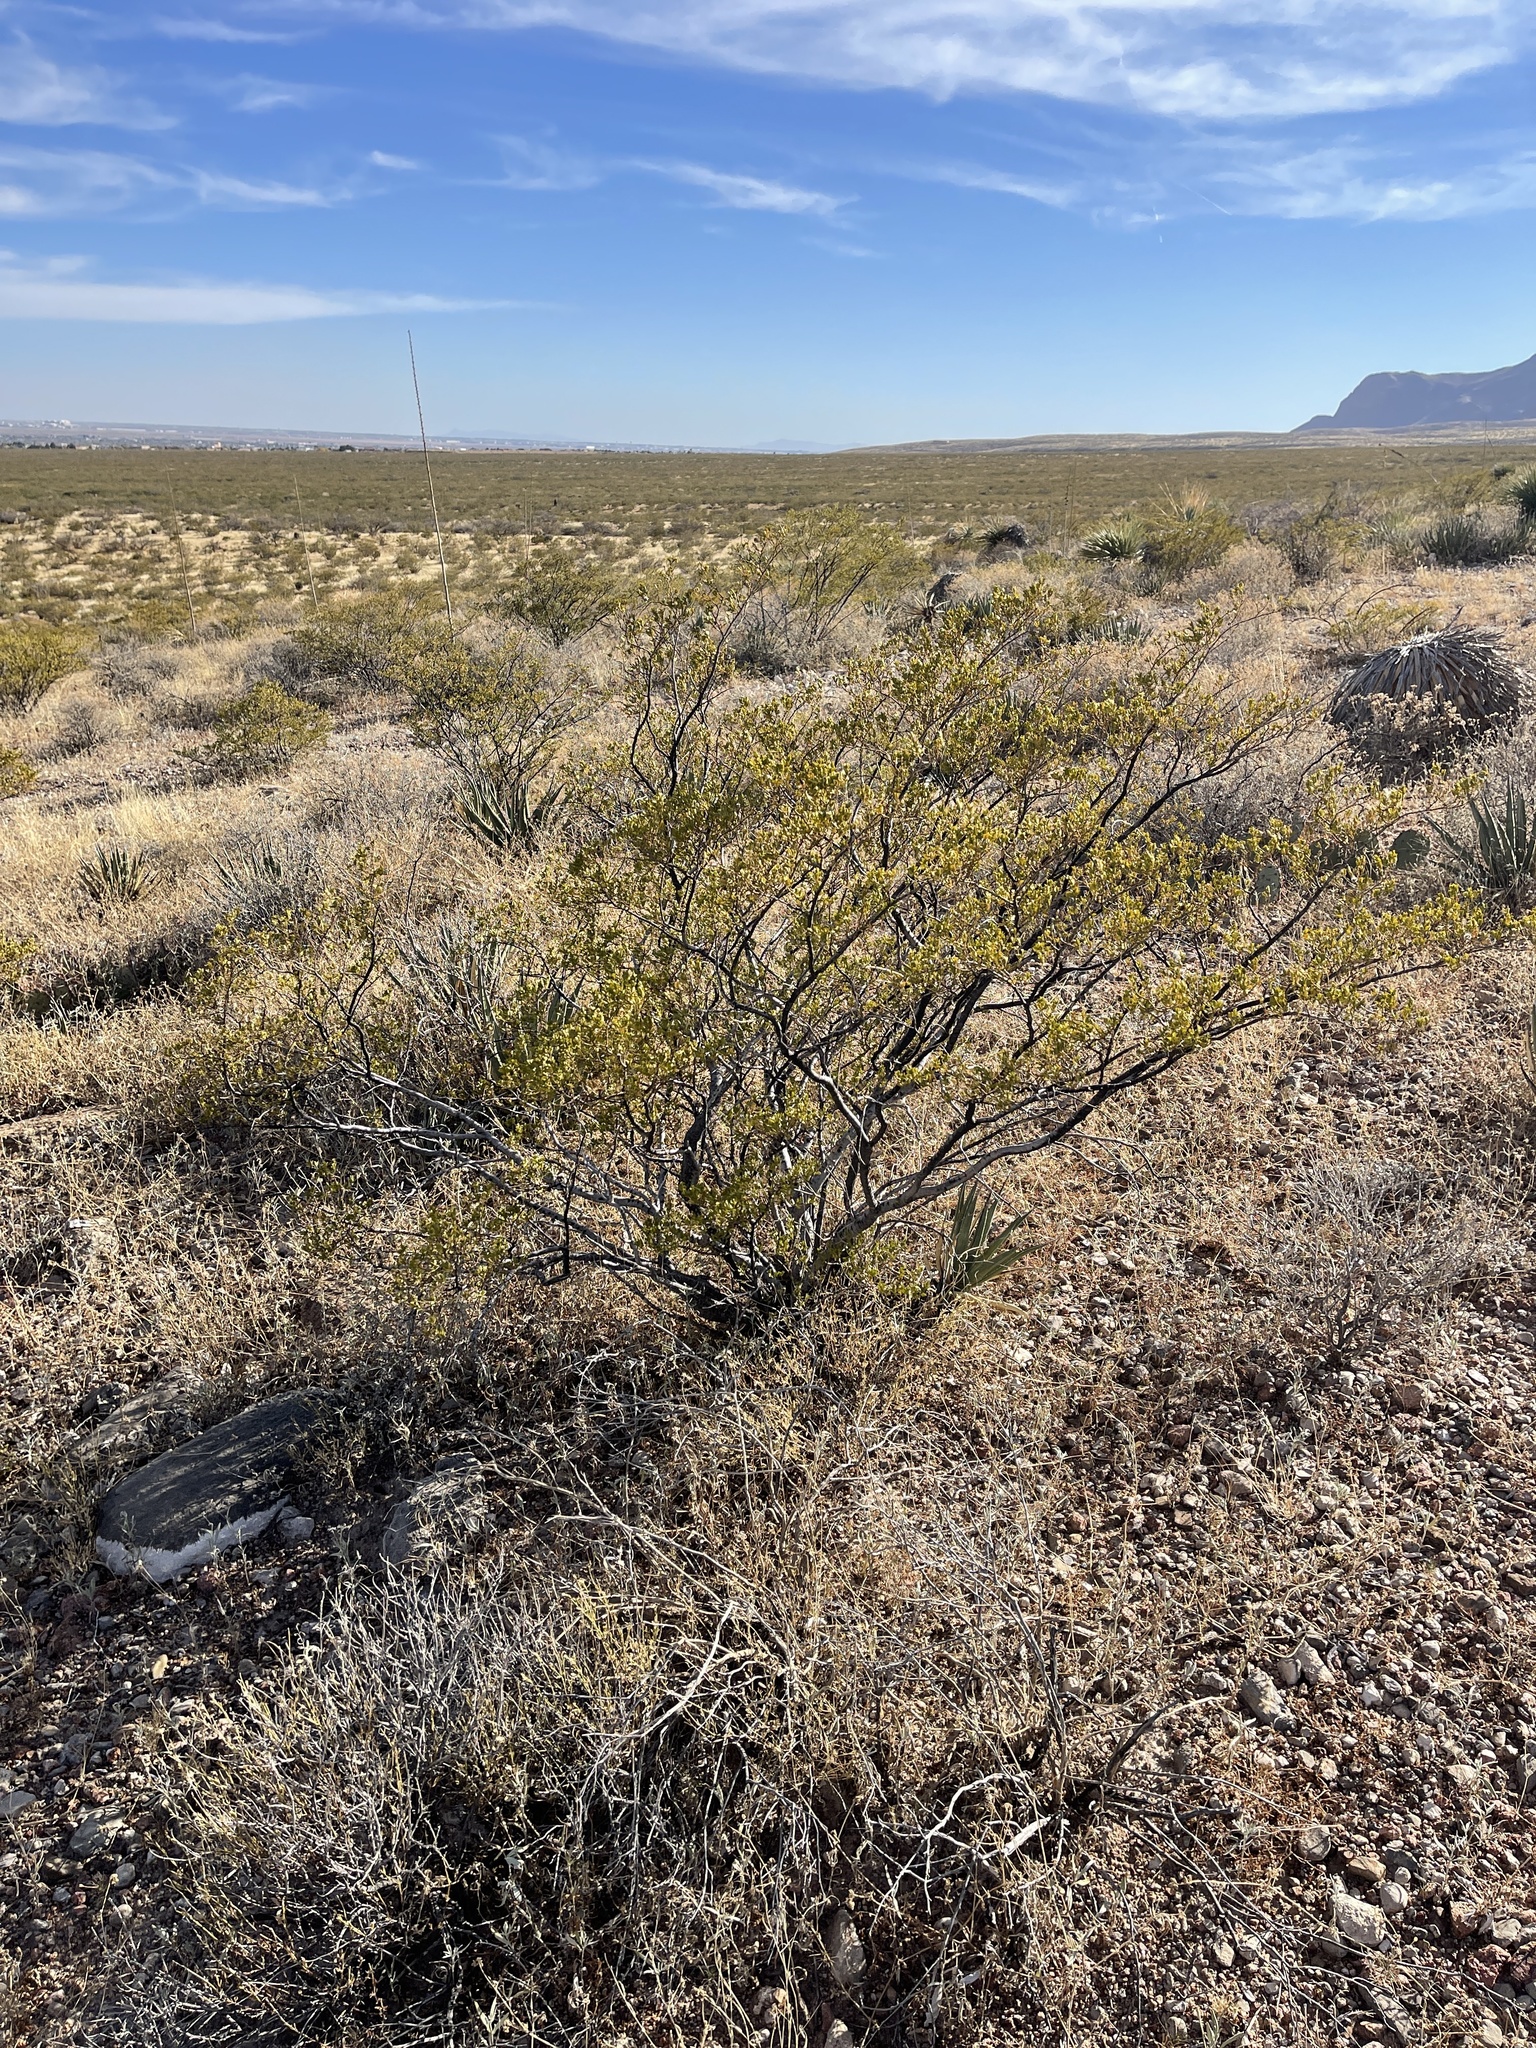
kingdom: Plantae
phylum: Tracheophyta
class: Magnoliopsida
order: Zygophyllales
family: Zygophyllaceae
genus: Larrea
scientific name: Larrea tridentata
